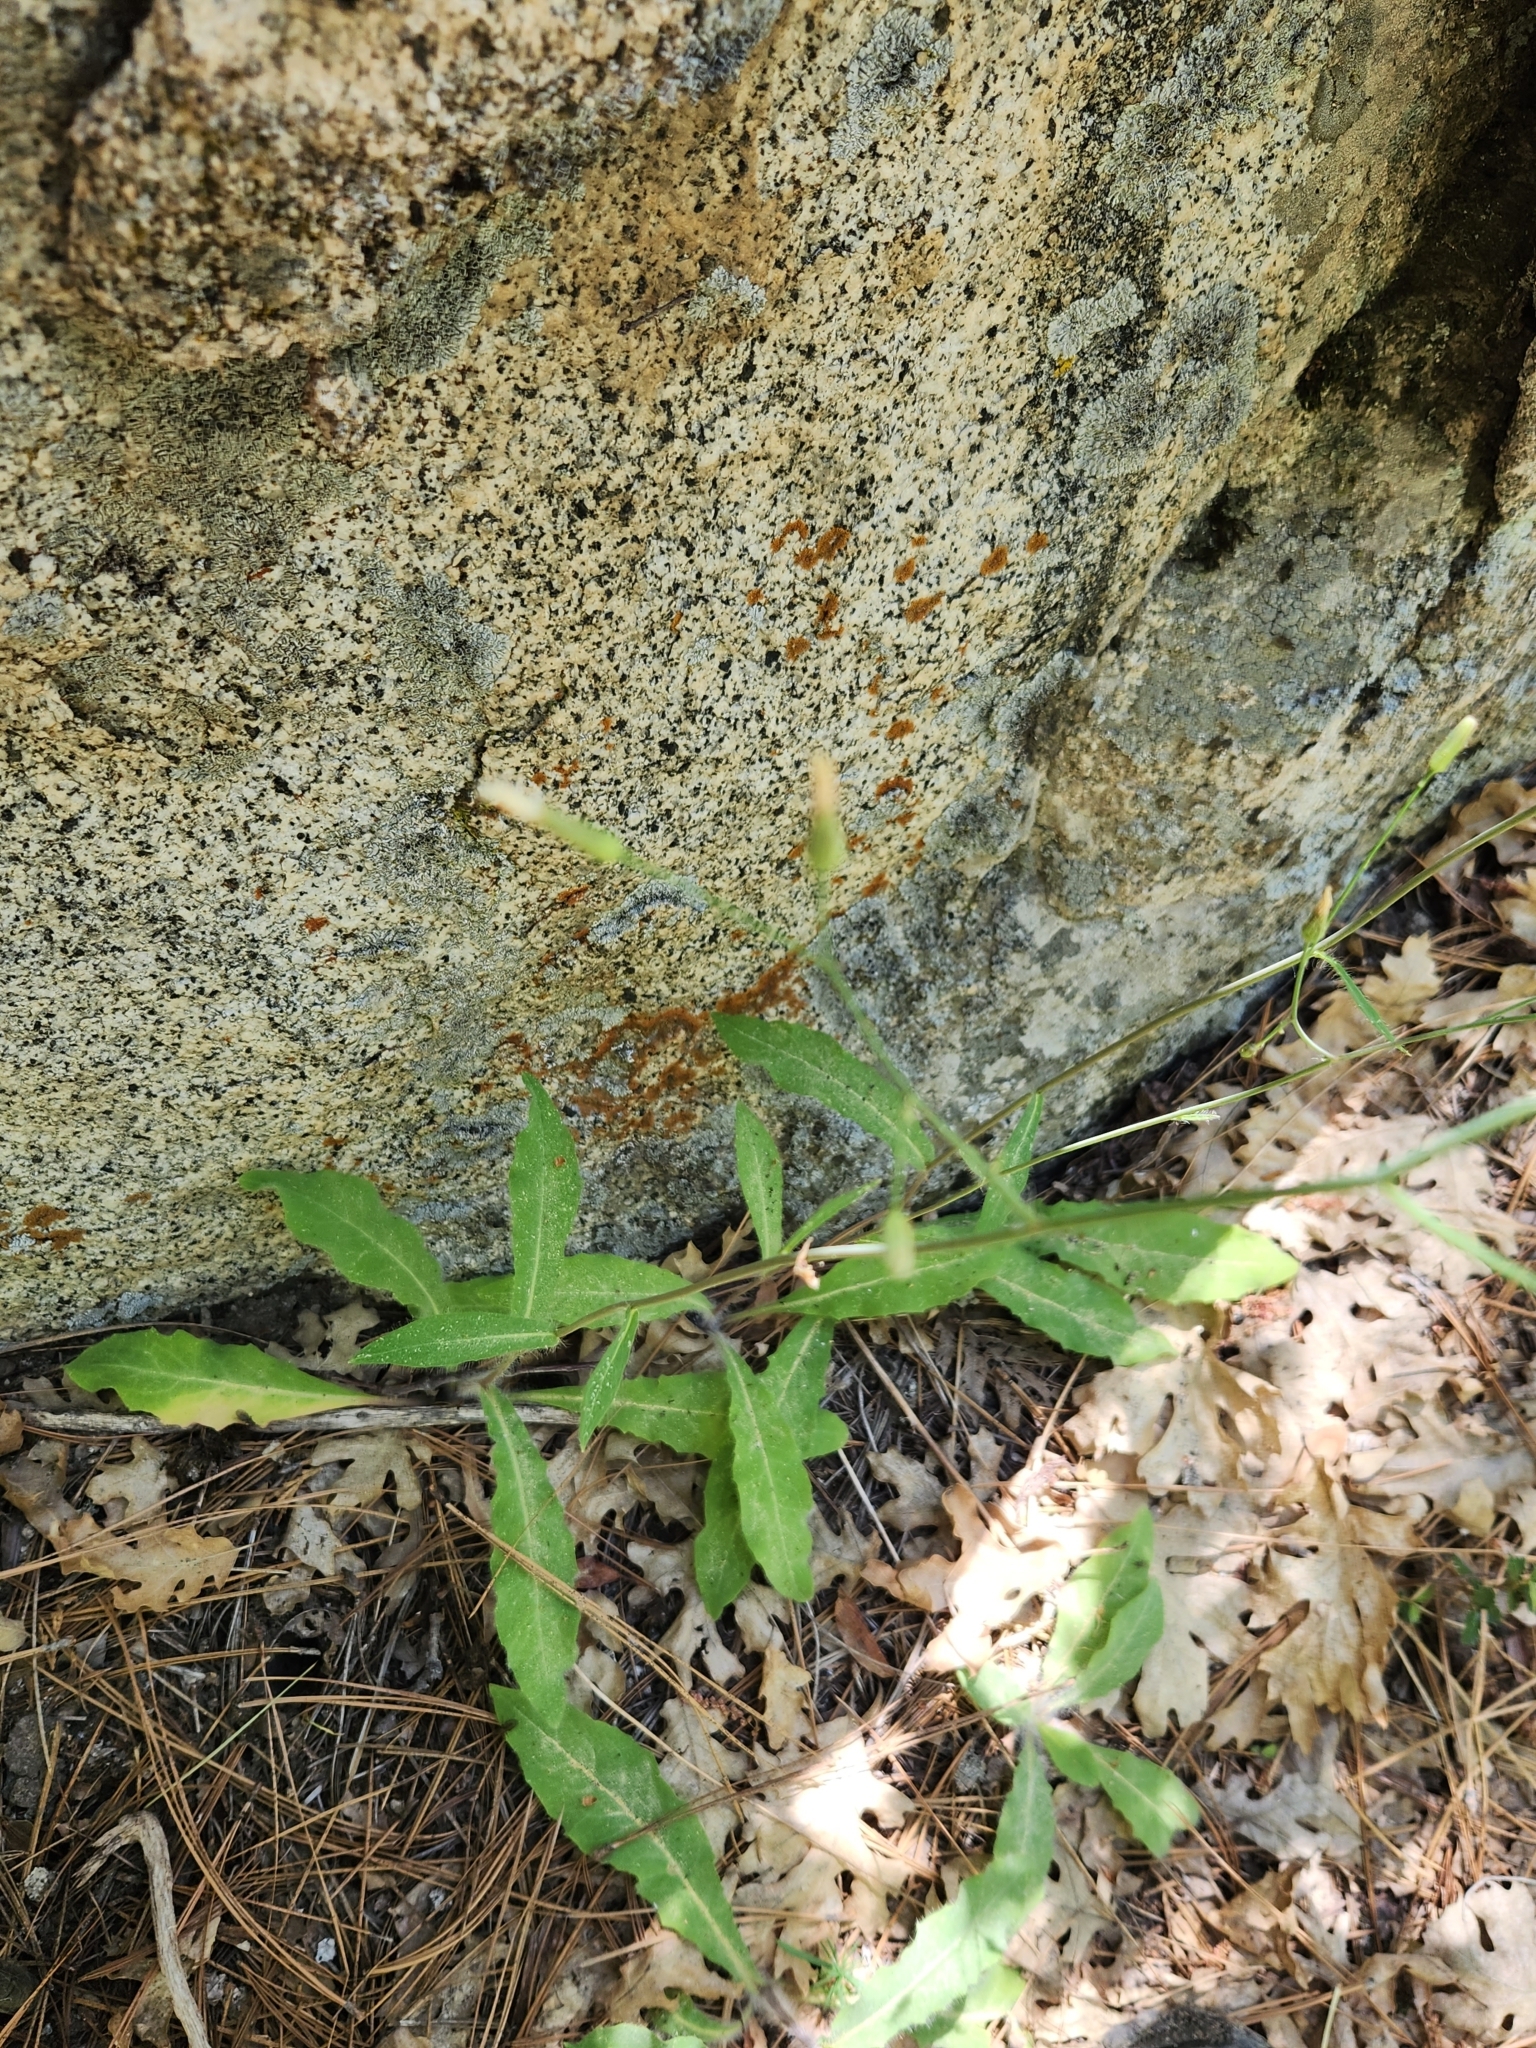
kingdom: Plantae
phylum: Tracheophyta
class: Magnoliopsida
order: Asterales
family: Asteraceae
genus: Hieracium
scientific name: Hieracium albiflorum
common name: White hawkweed
